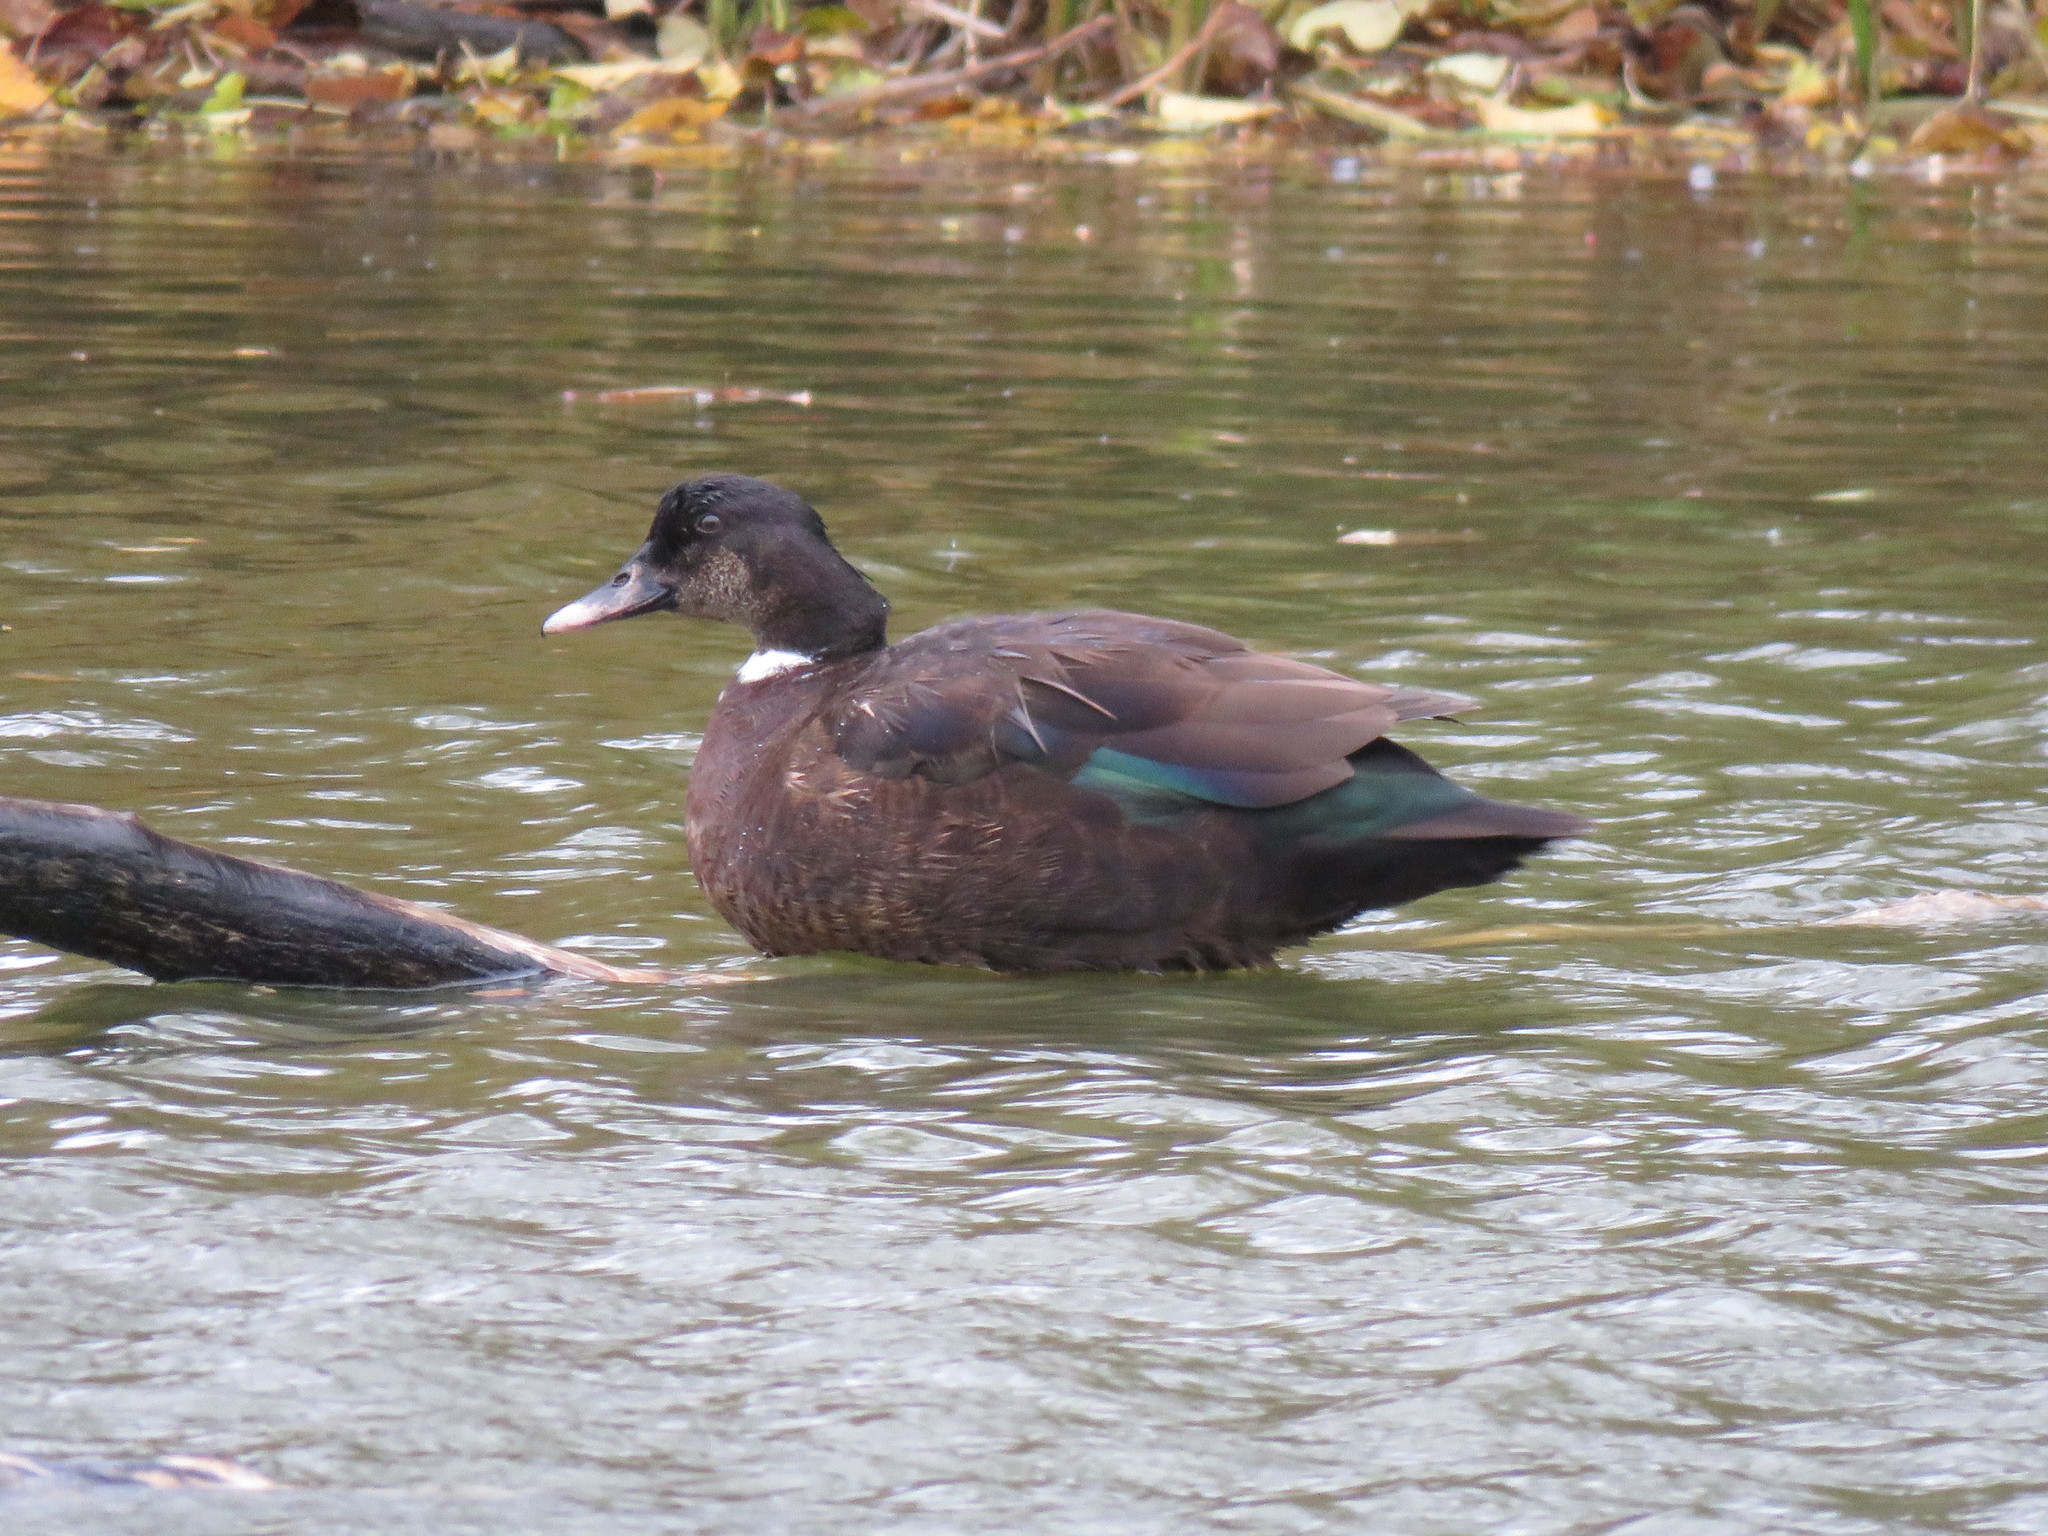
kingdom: Animalia
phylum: Chordata
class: Aves
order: Anseriformes
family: Anatidae
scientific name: Anatidae
